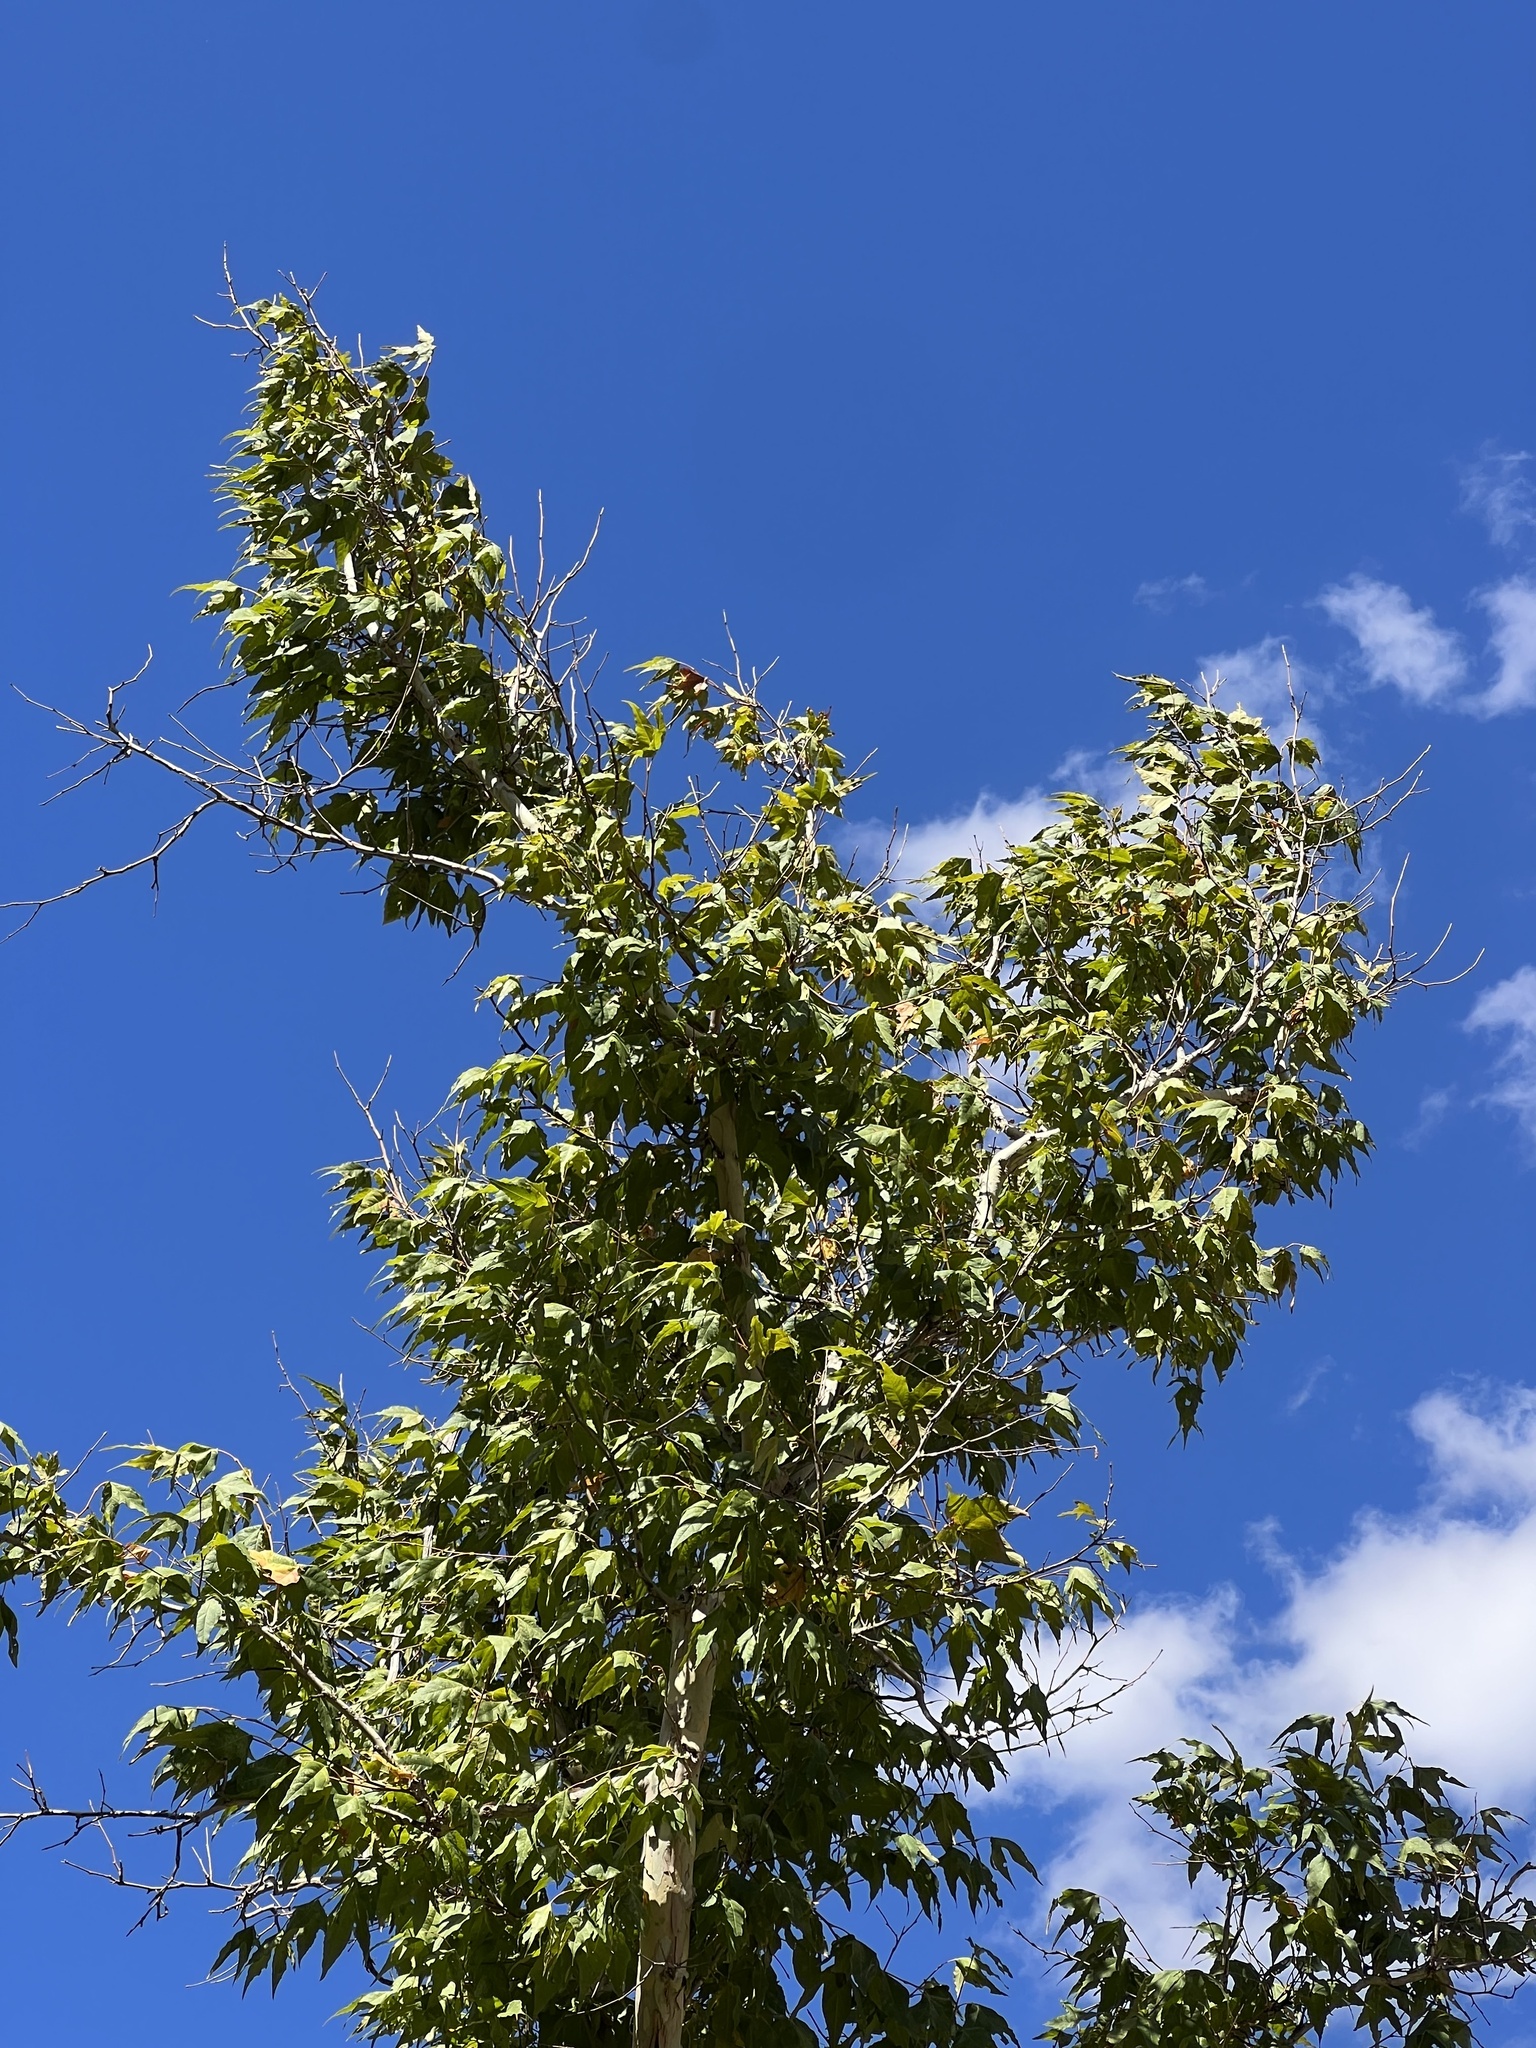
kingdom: Plantae
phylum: Tracheophyta
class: Magnoliopsida
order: Proteales
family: Platanaceae
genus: Platanus
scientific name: Platanus wrightii
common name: Arizona sycamore
